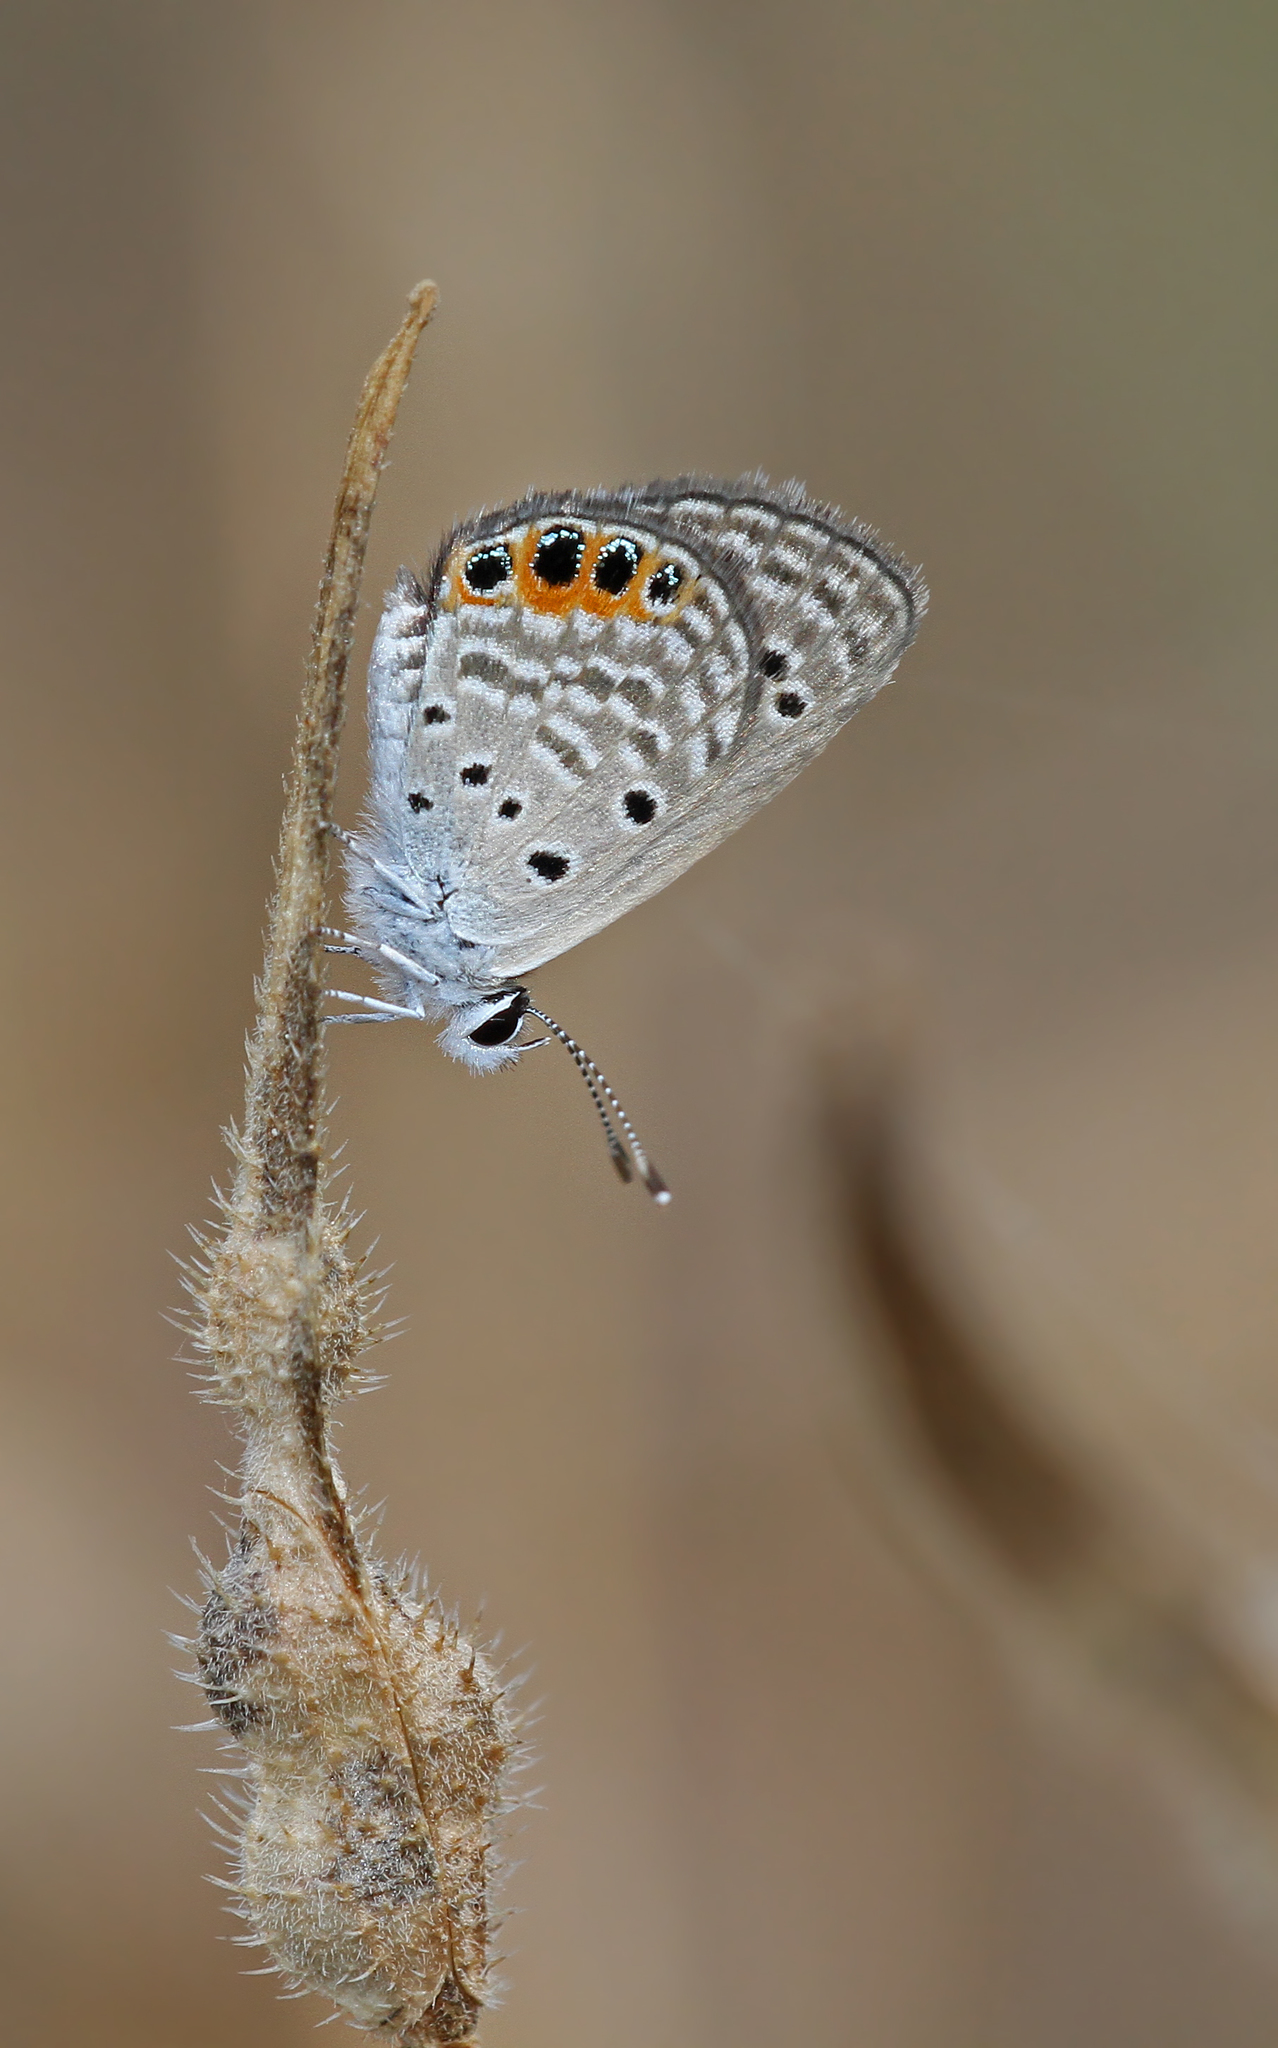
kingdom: Animalia
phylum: Arthropoda
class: Insecta
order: Lepidoptera
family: Lycaenidae
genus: Freyeria
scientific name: Freyeria trochylus
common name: Grass jewel
